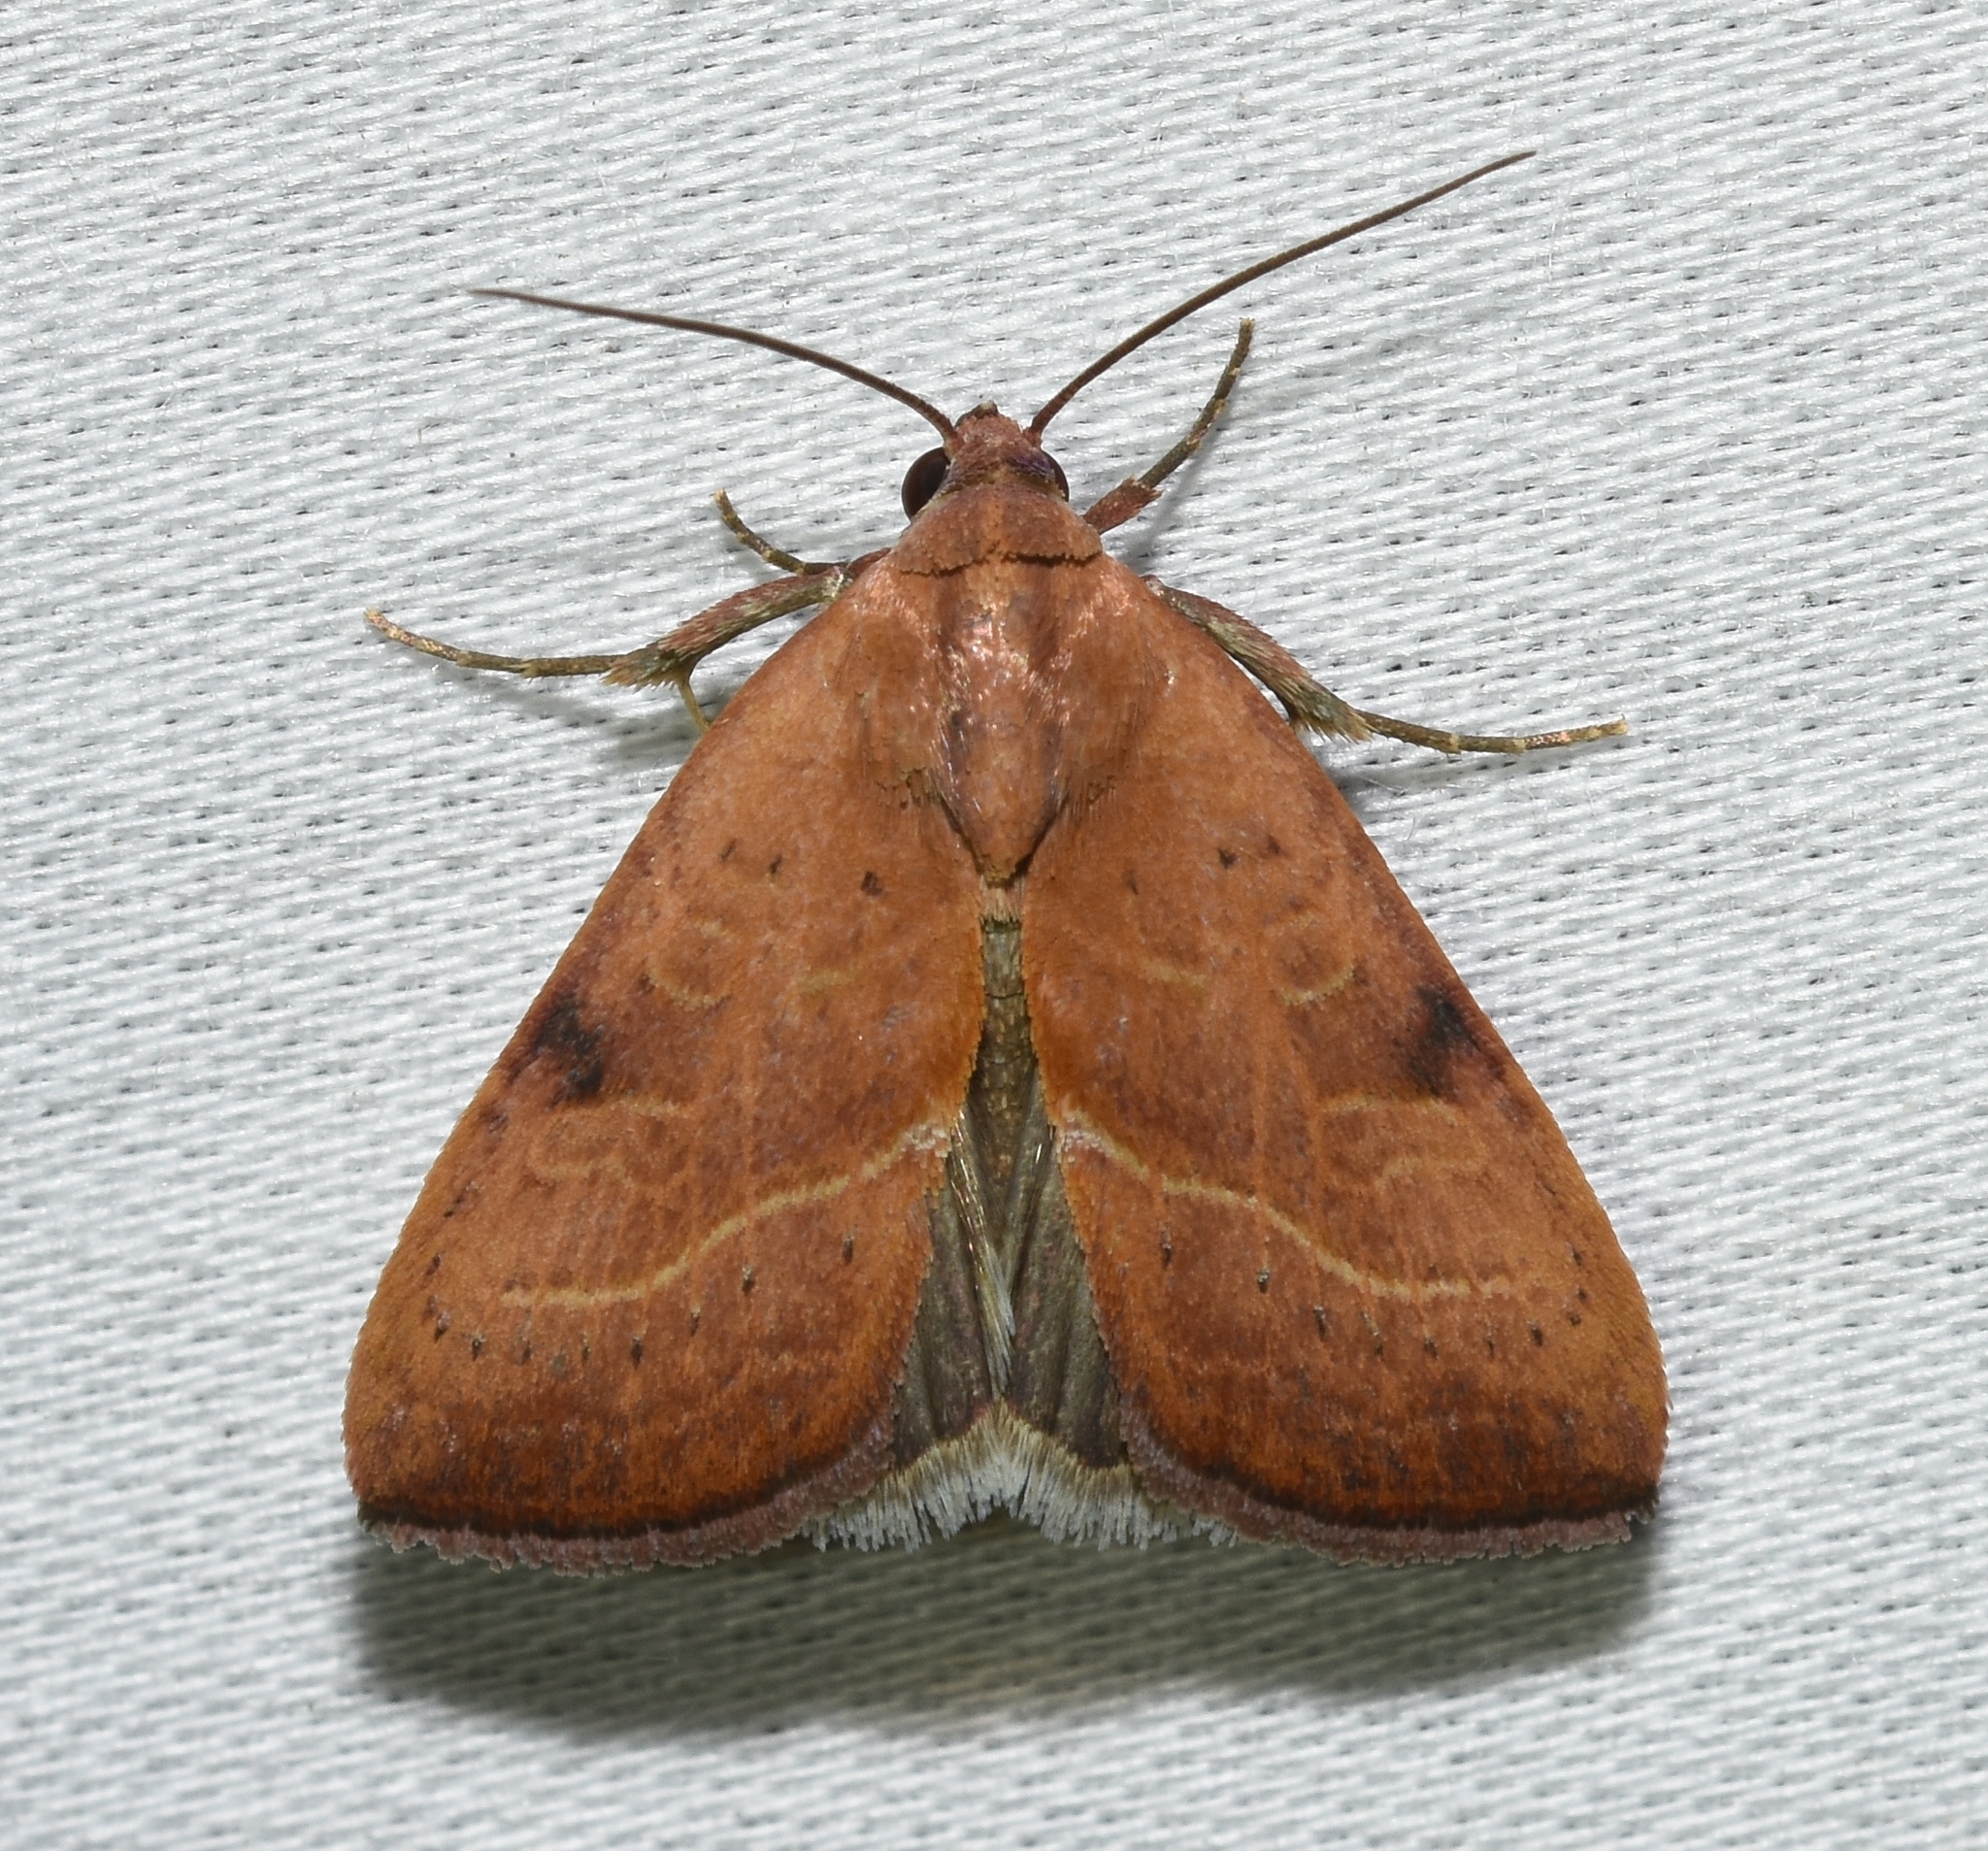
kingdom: Animalia
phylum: Arthropoda
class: Insecta
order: Lepidoptera
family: Noctuidae
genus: Galgula
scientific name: Galgula partita
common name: Wedgeling
